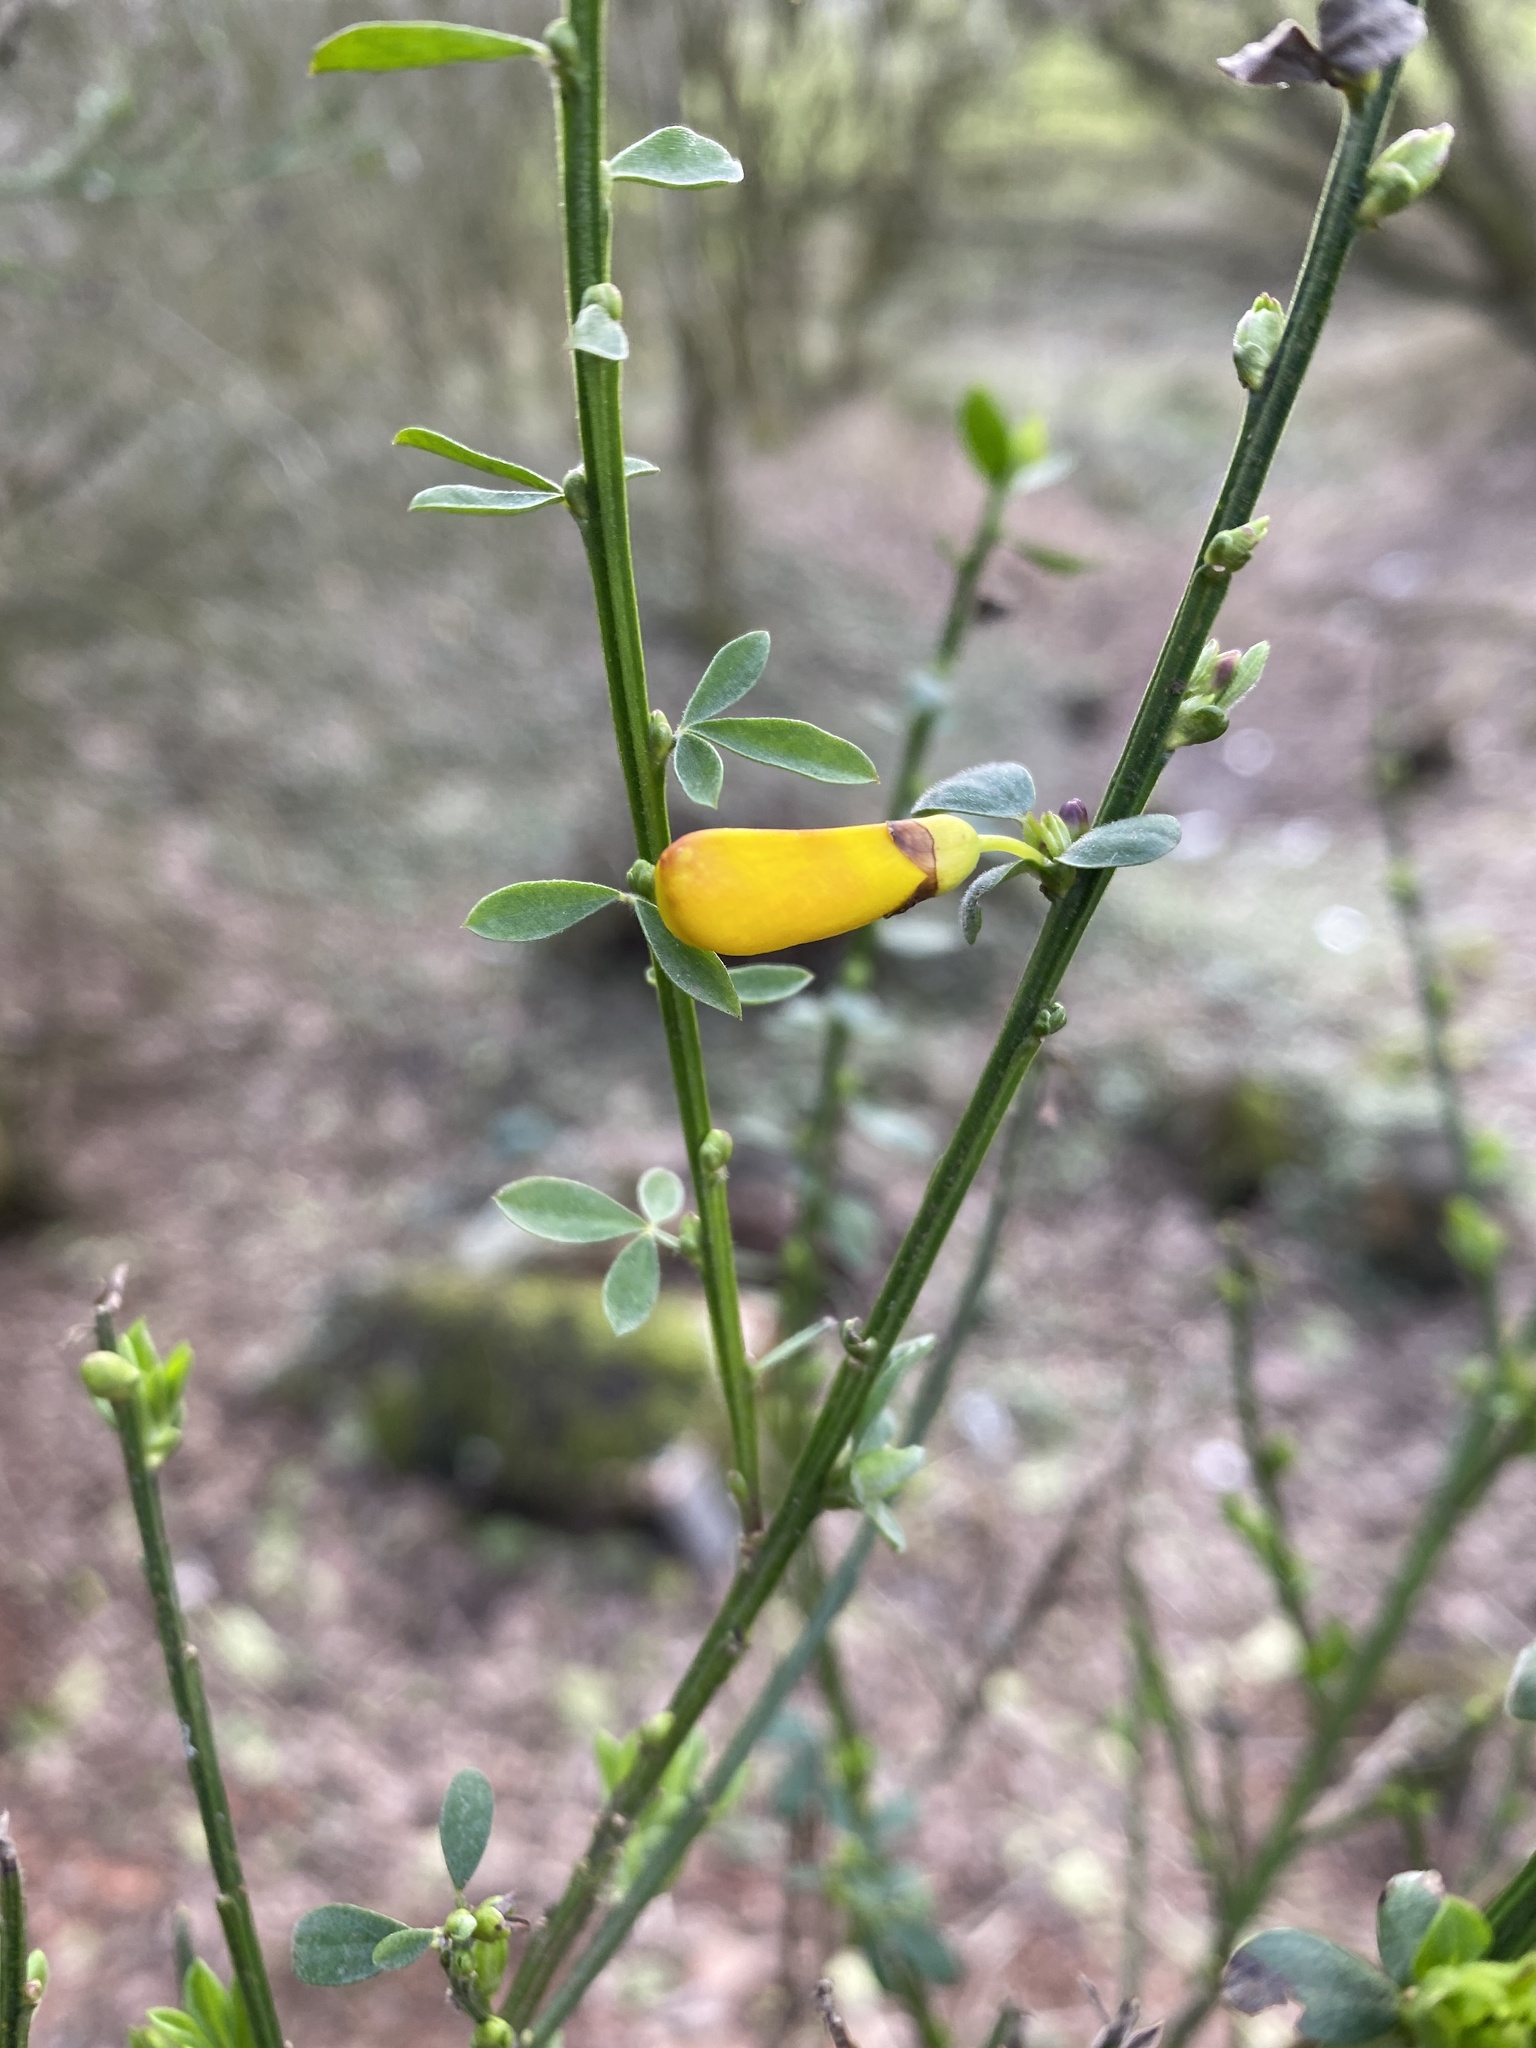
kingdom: Plantae
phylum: Tracheophyta
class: Magnoliopsida
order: Fabales
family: Fabaceae
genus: Cytisus
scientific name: Cytisus scoparius
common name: Scotch broom
